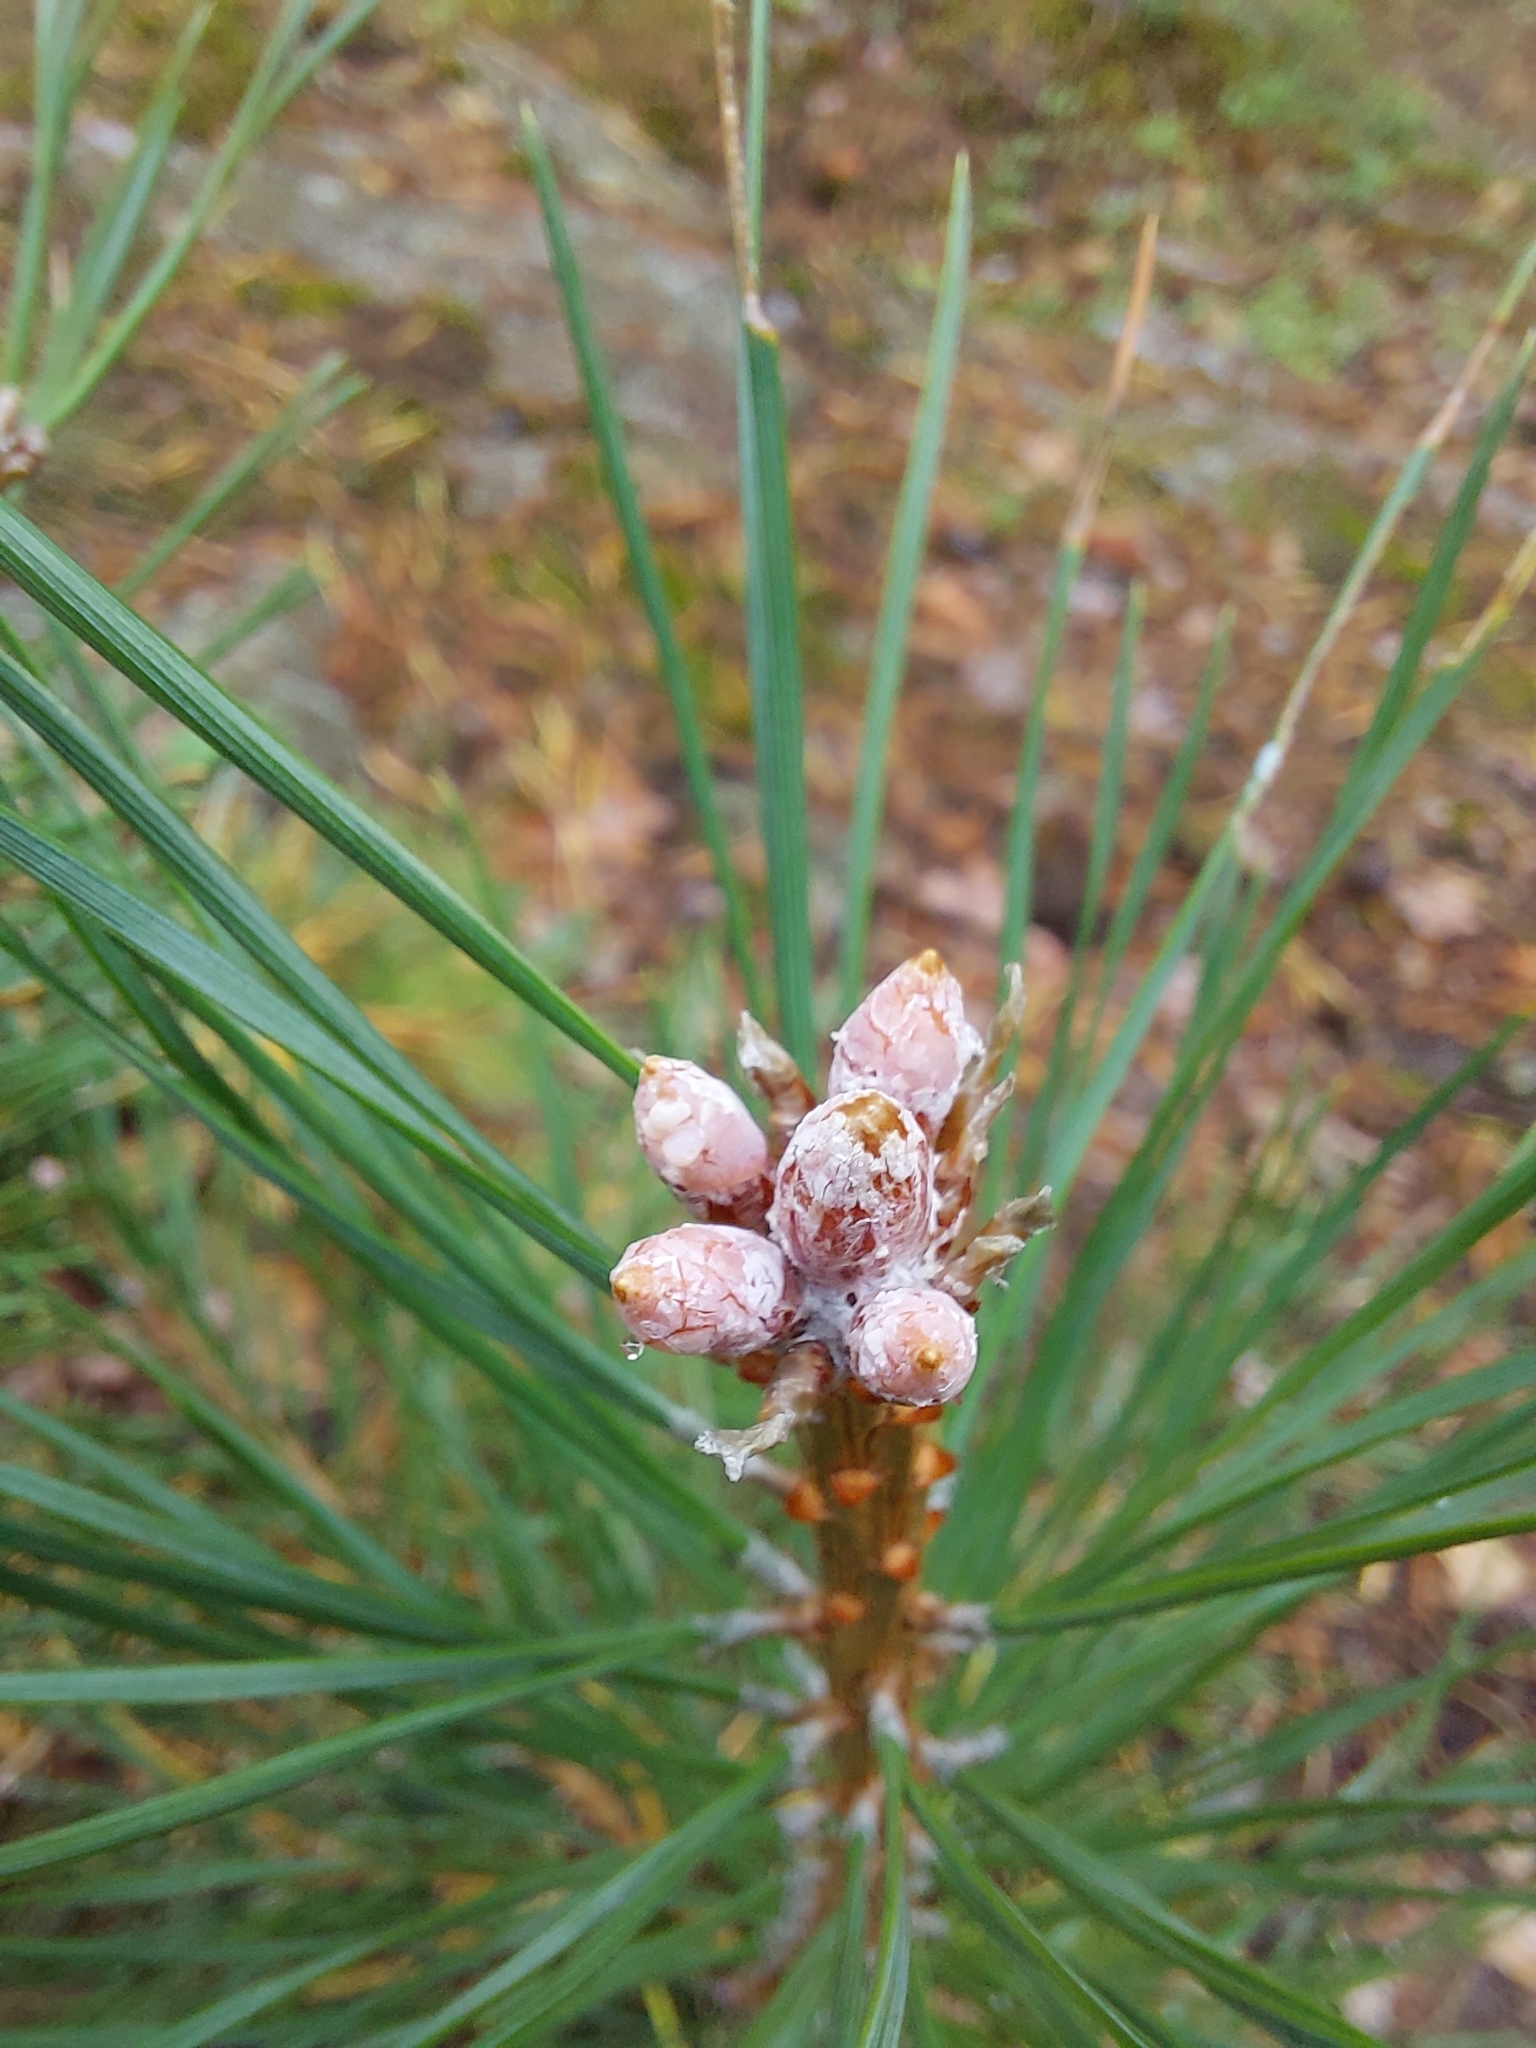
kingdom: Plantae
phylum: Tracheophyta
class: Pinopsida
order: Pinales
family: Pinaceae
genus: Pinus
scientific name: Pinus sylvestris
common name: Scots pine
